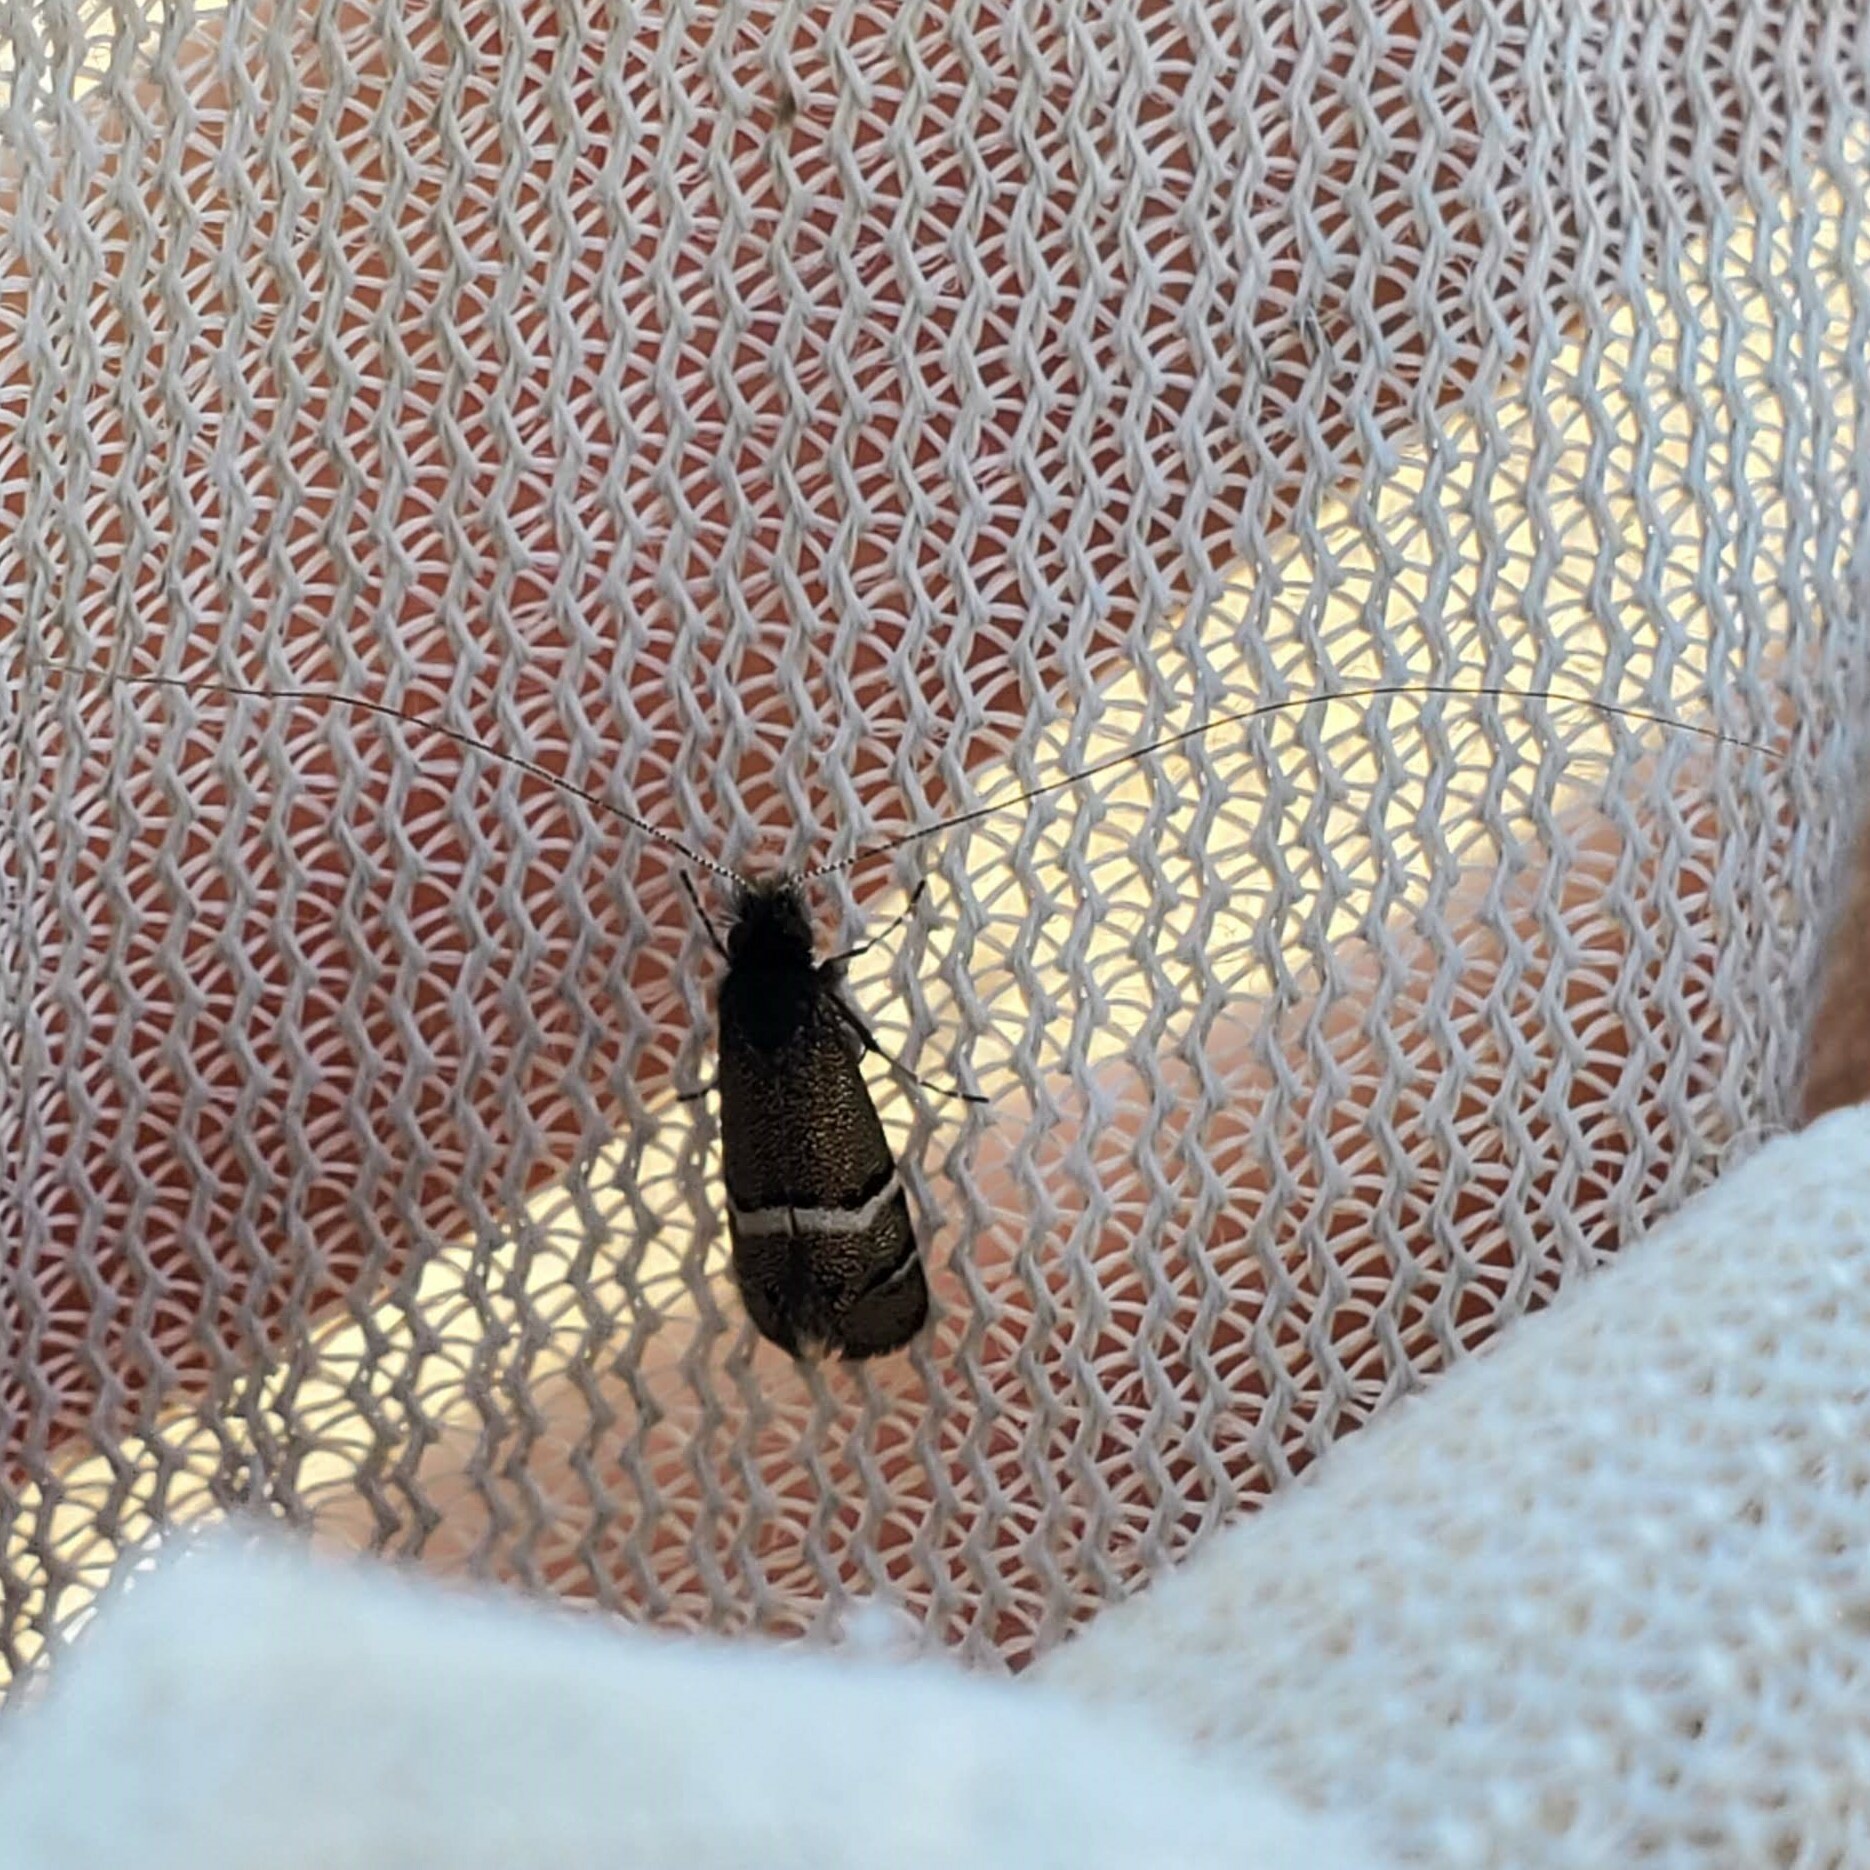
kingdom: Animalia
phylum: Arthropoda
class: Insecta
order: Lepidoptera
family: Adelidae
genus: Adela
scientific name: Adela purpurea
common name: Purple fairy moth
